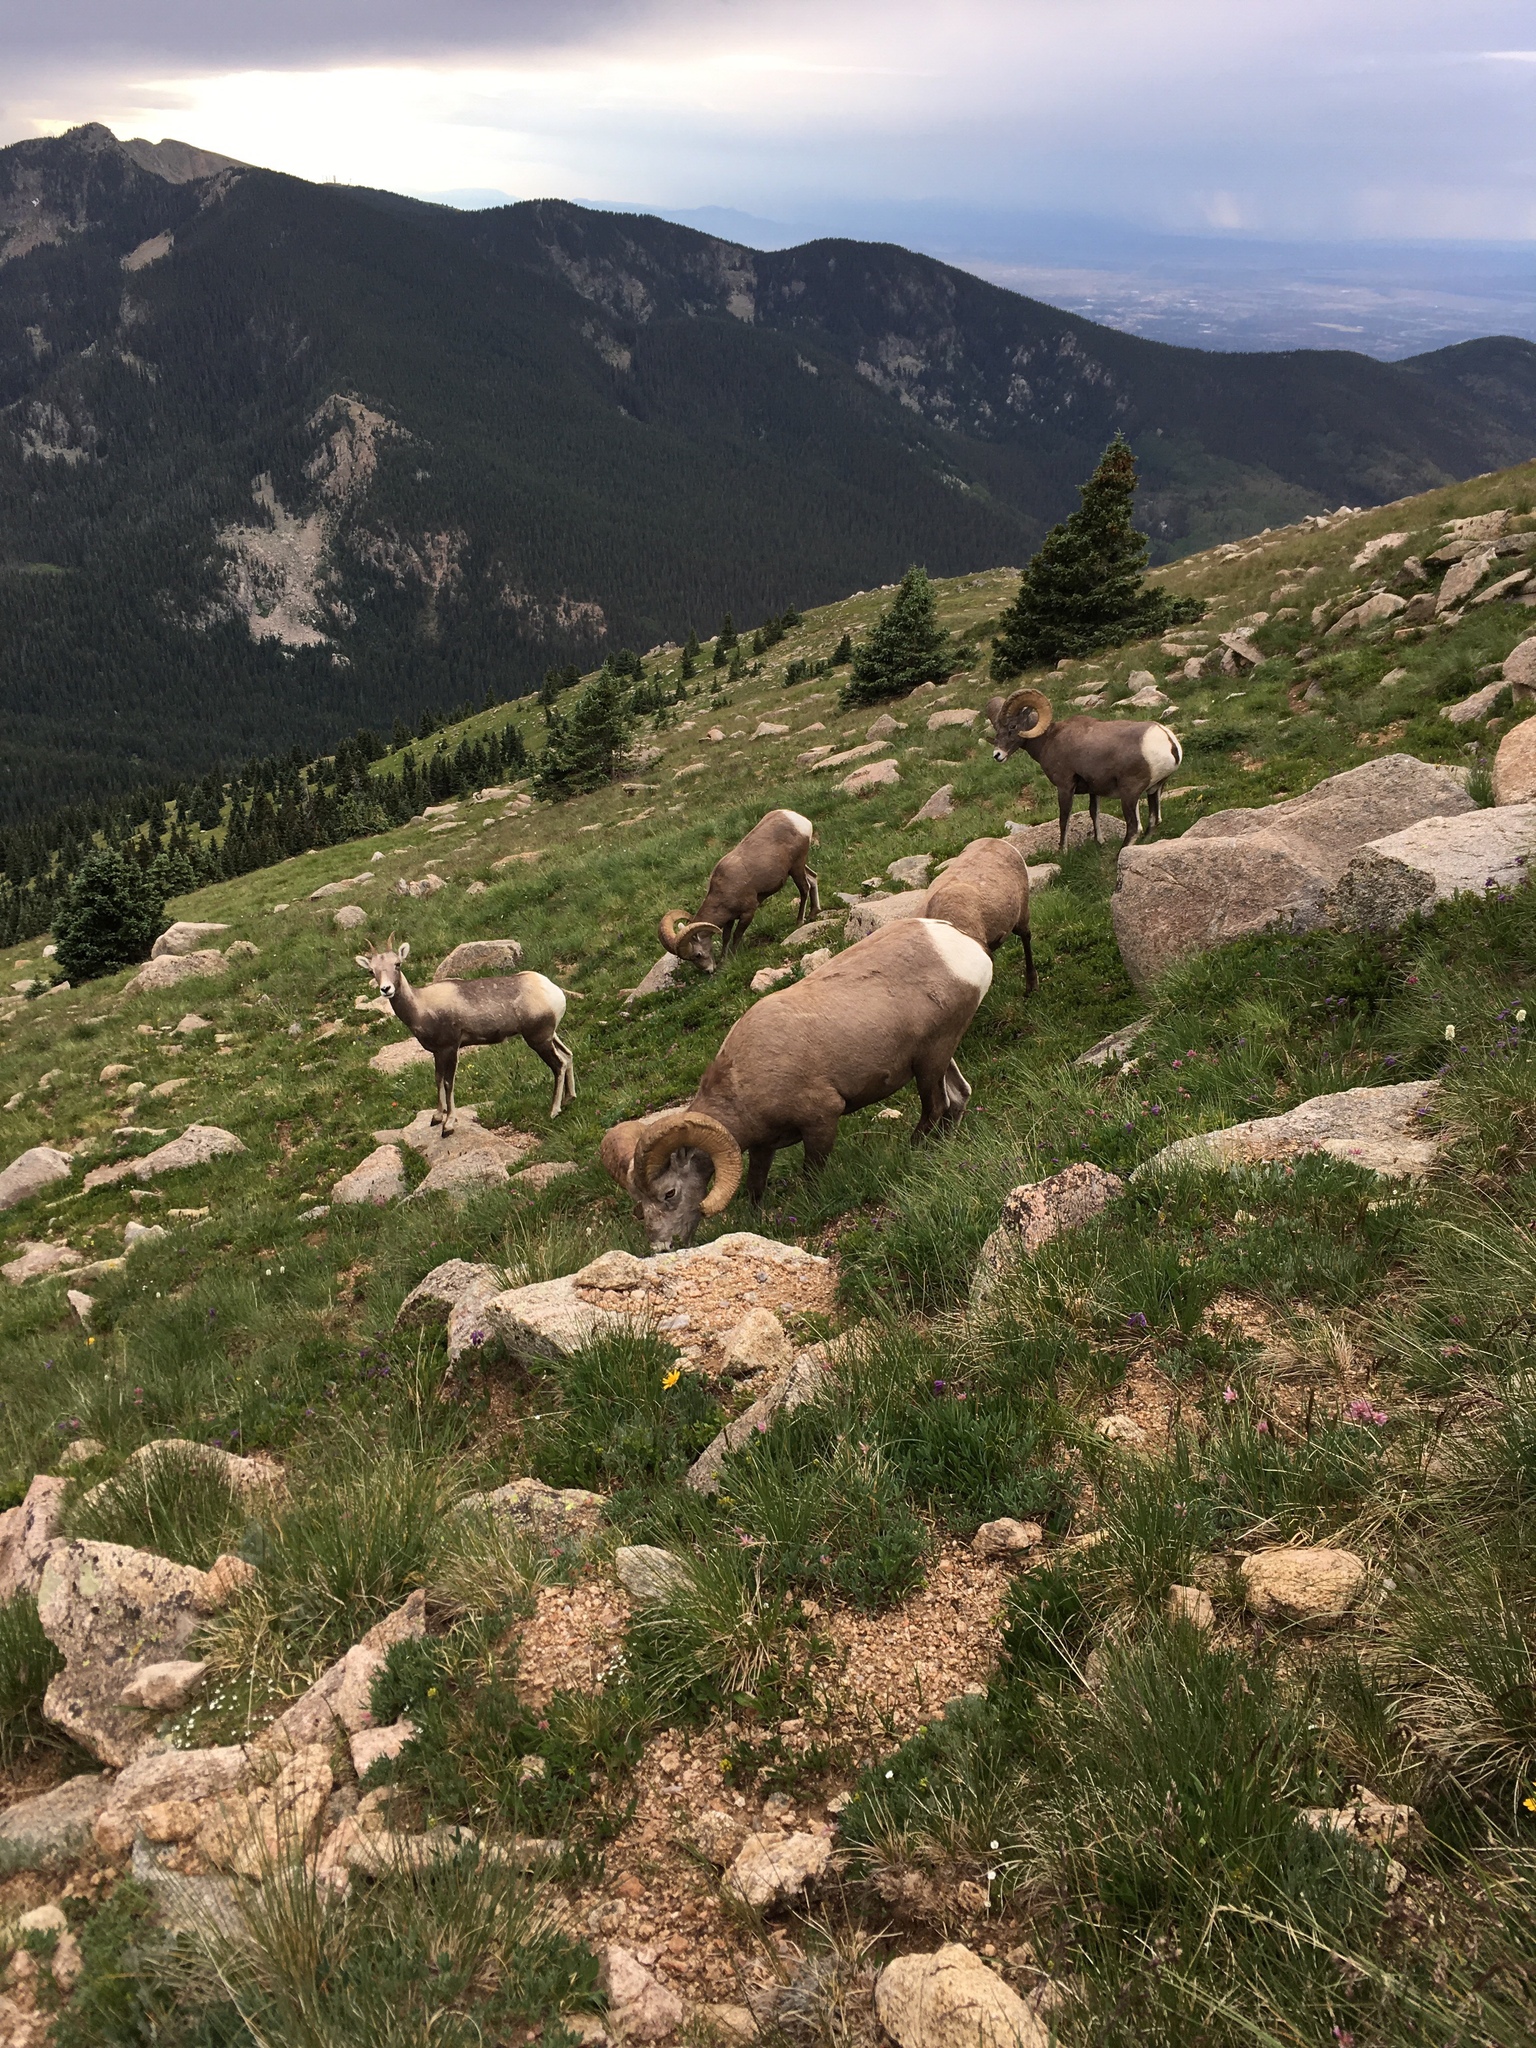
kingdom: Animalia
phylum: Chordata
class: Mammalia
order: Artiodactyla
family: Bovidae
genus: Ovis
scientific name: Ovis canadensis
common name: Bighorn sheep
